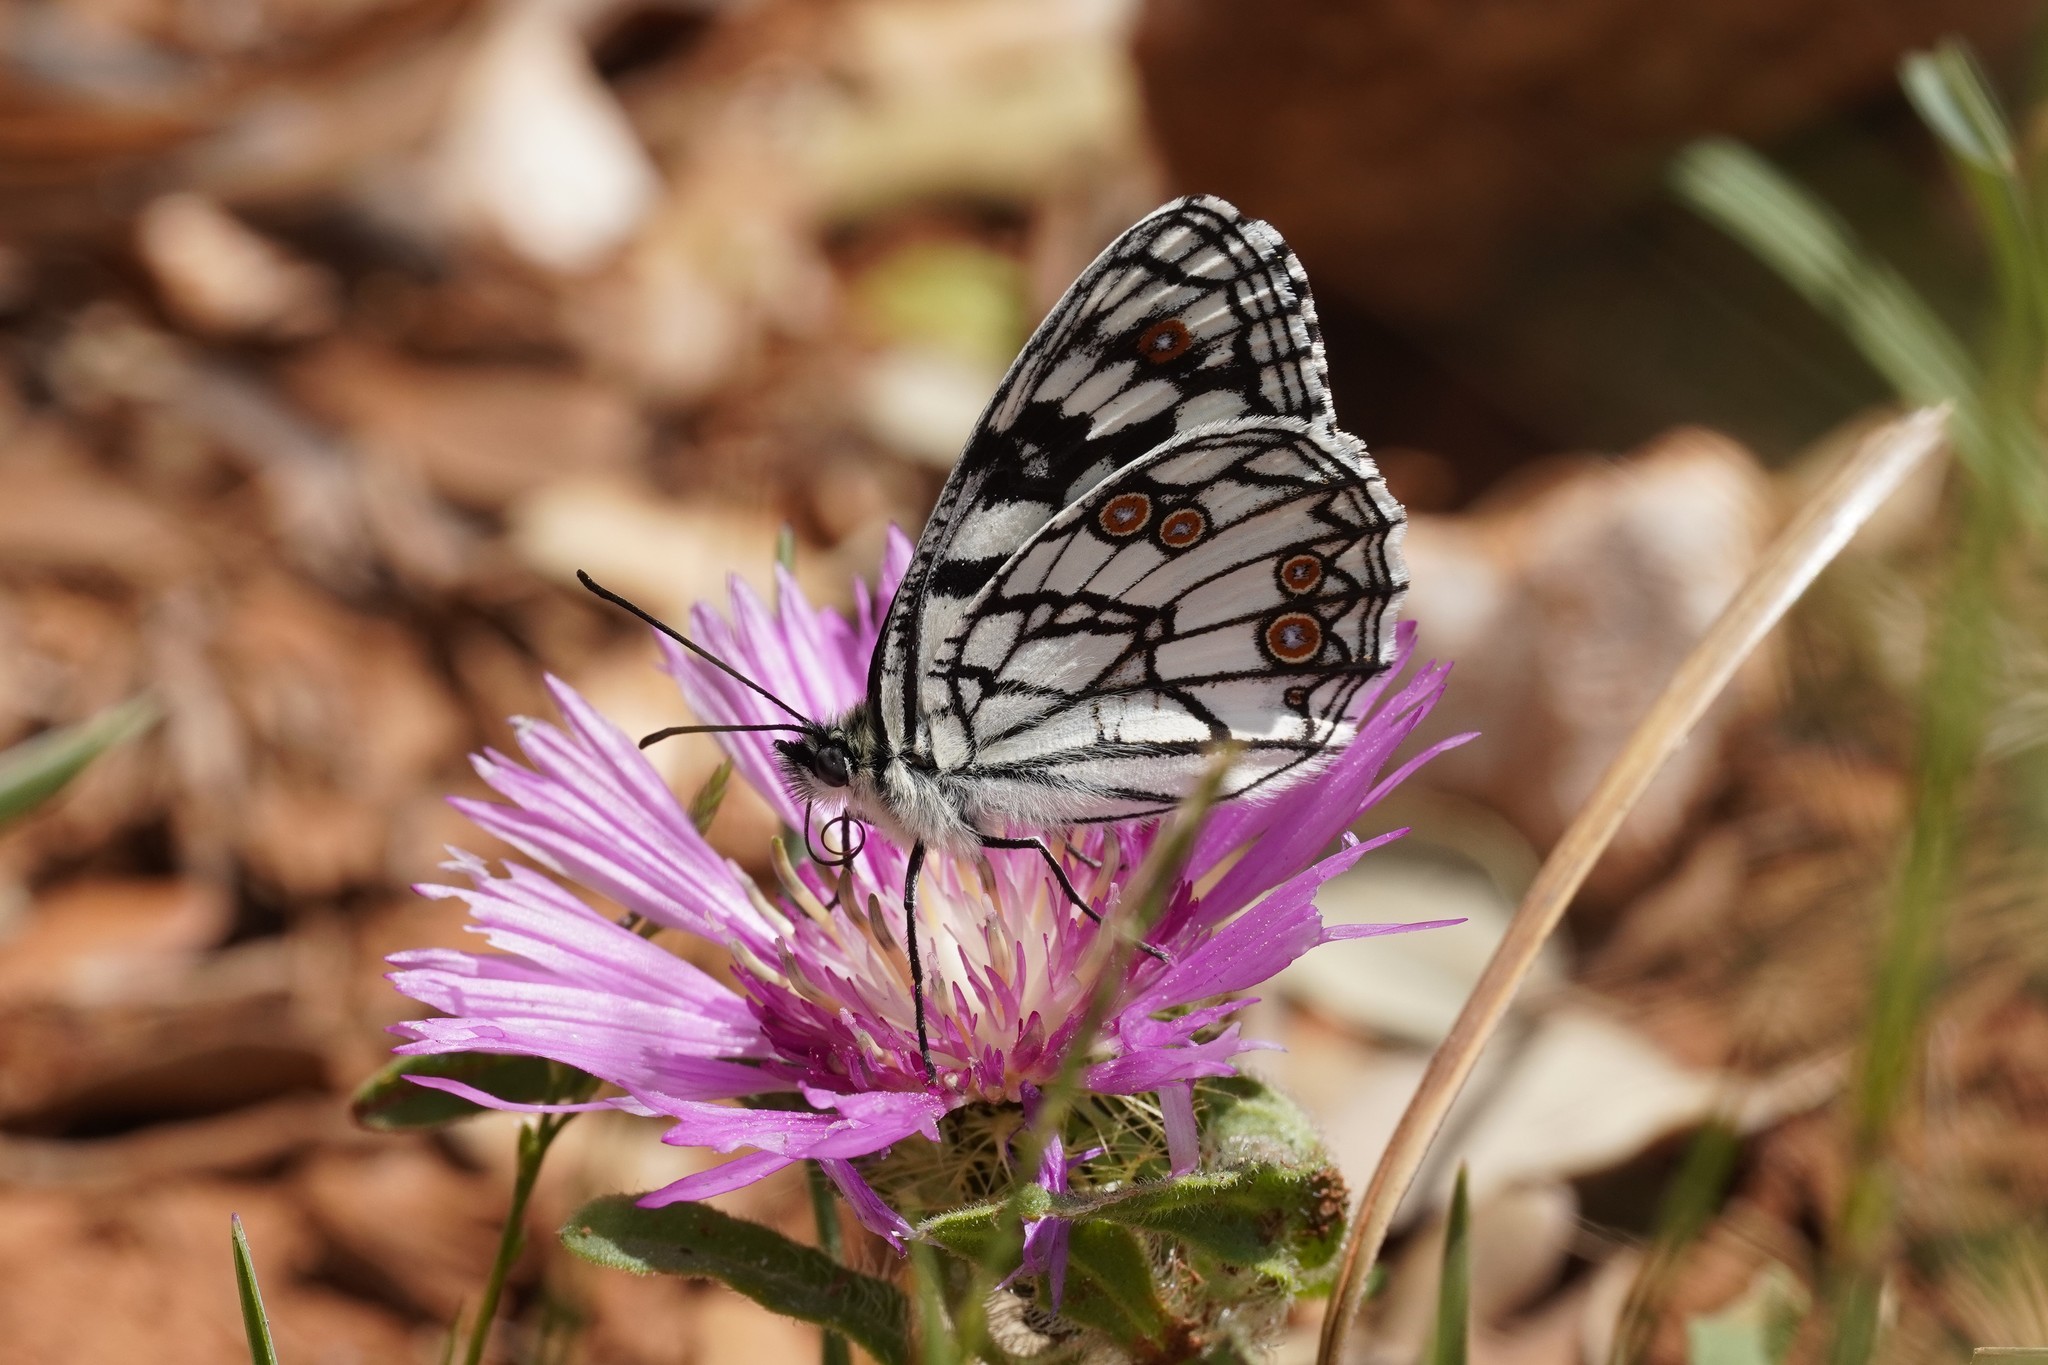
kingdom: Animalia
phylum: Arthropoda
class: Insecta
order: Lepidoptera
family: Nymphalidae
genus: Melanargia
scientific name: Melanargia ines
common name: Spanish marbled white
